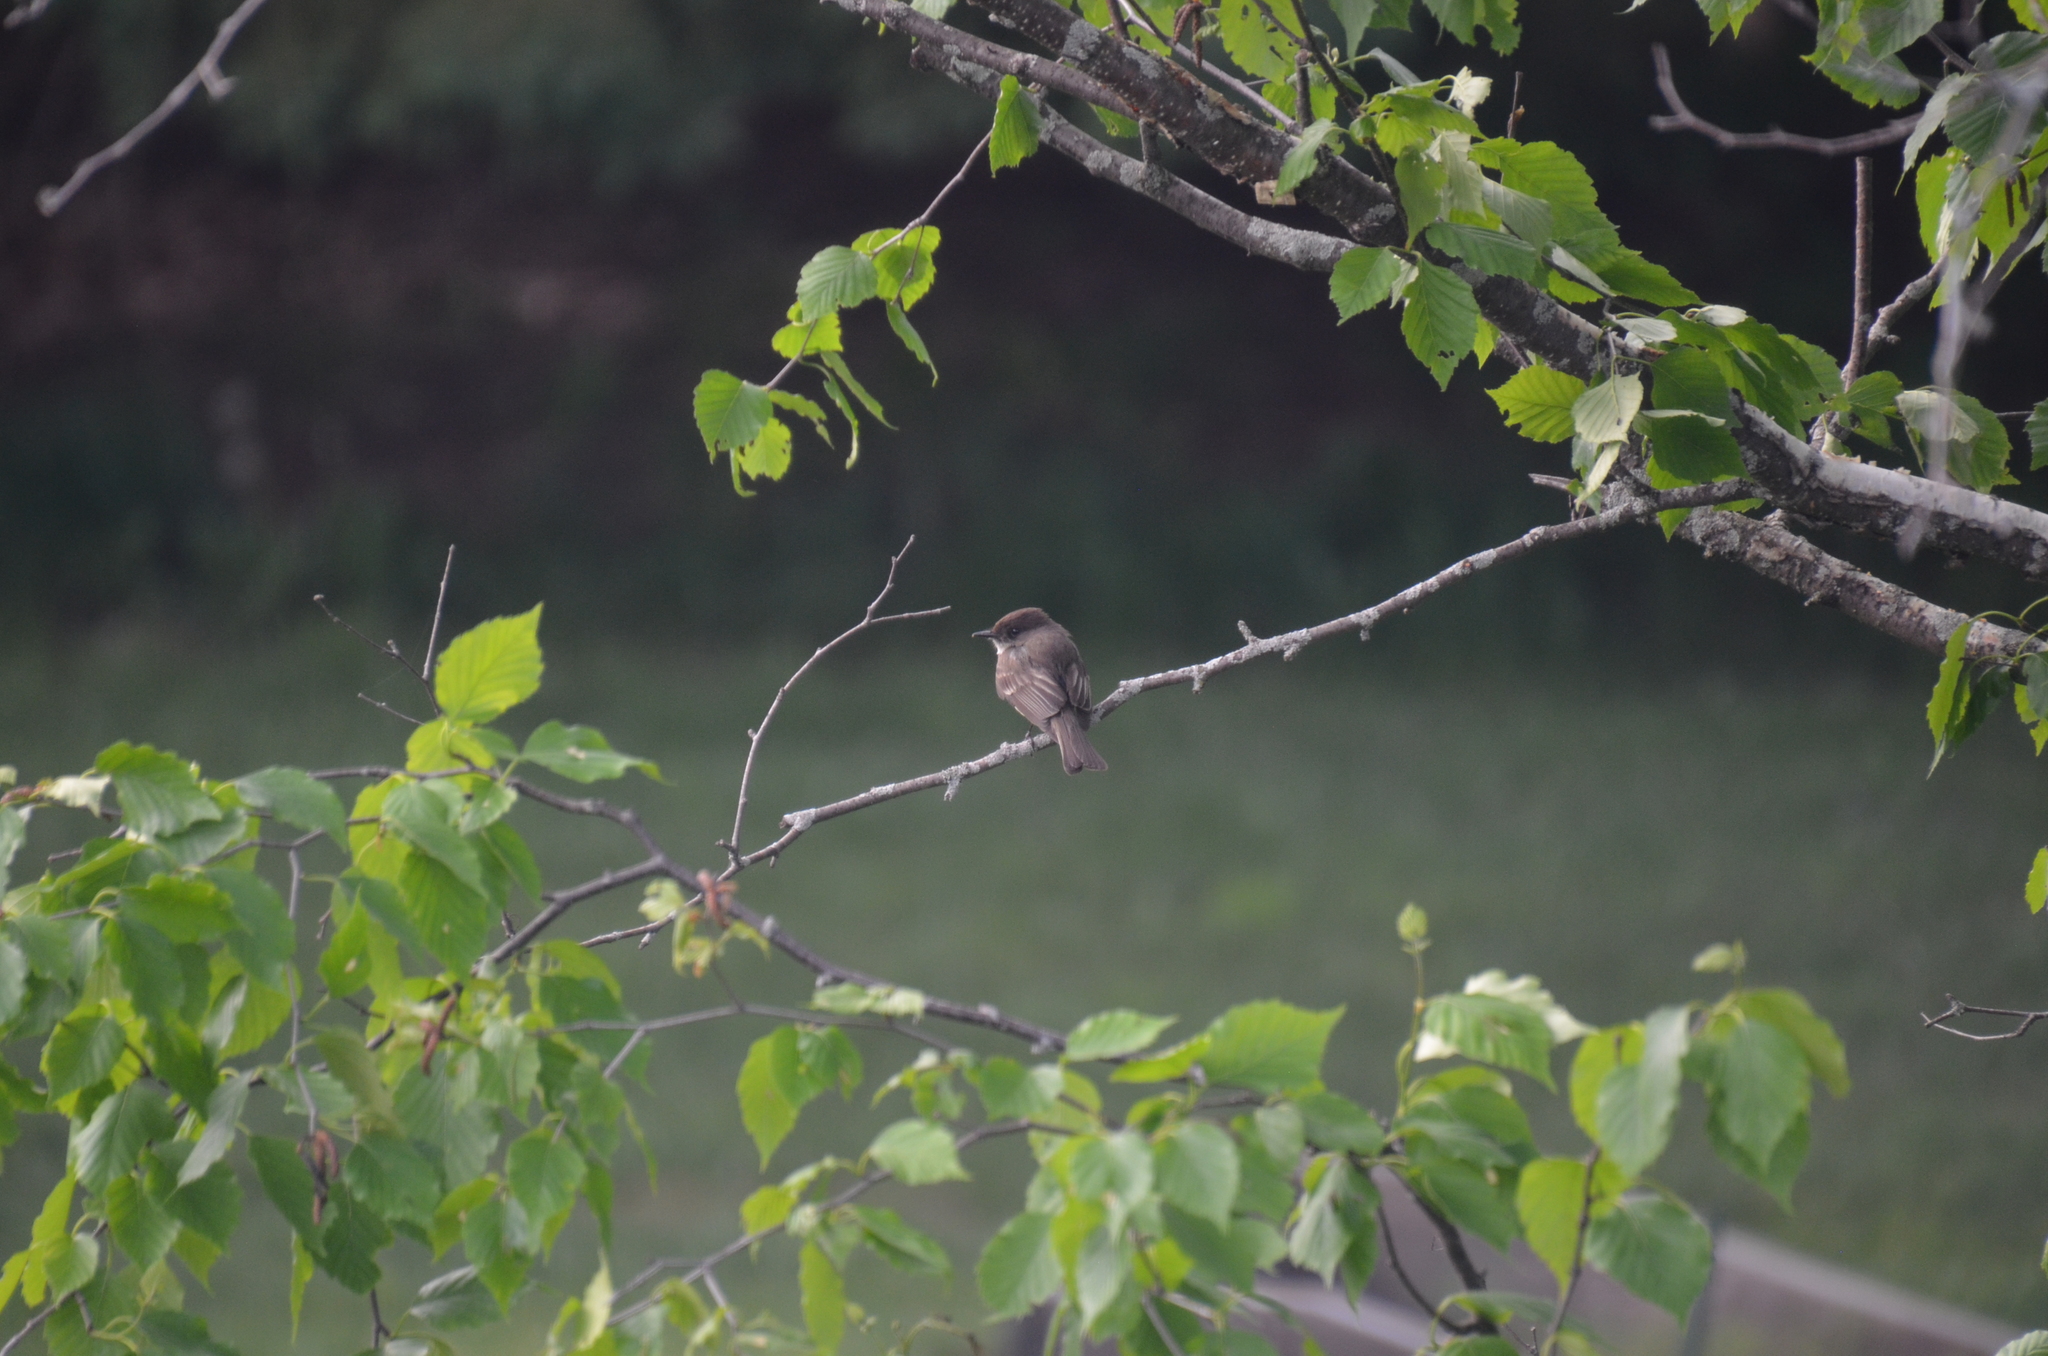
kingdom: Animalia
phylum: Chordata
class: Aves
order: Passeriformes
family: Tyrannidae
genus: Sayornis
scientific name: Sayornis phoebe
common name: Eastern phoebe
